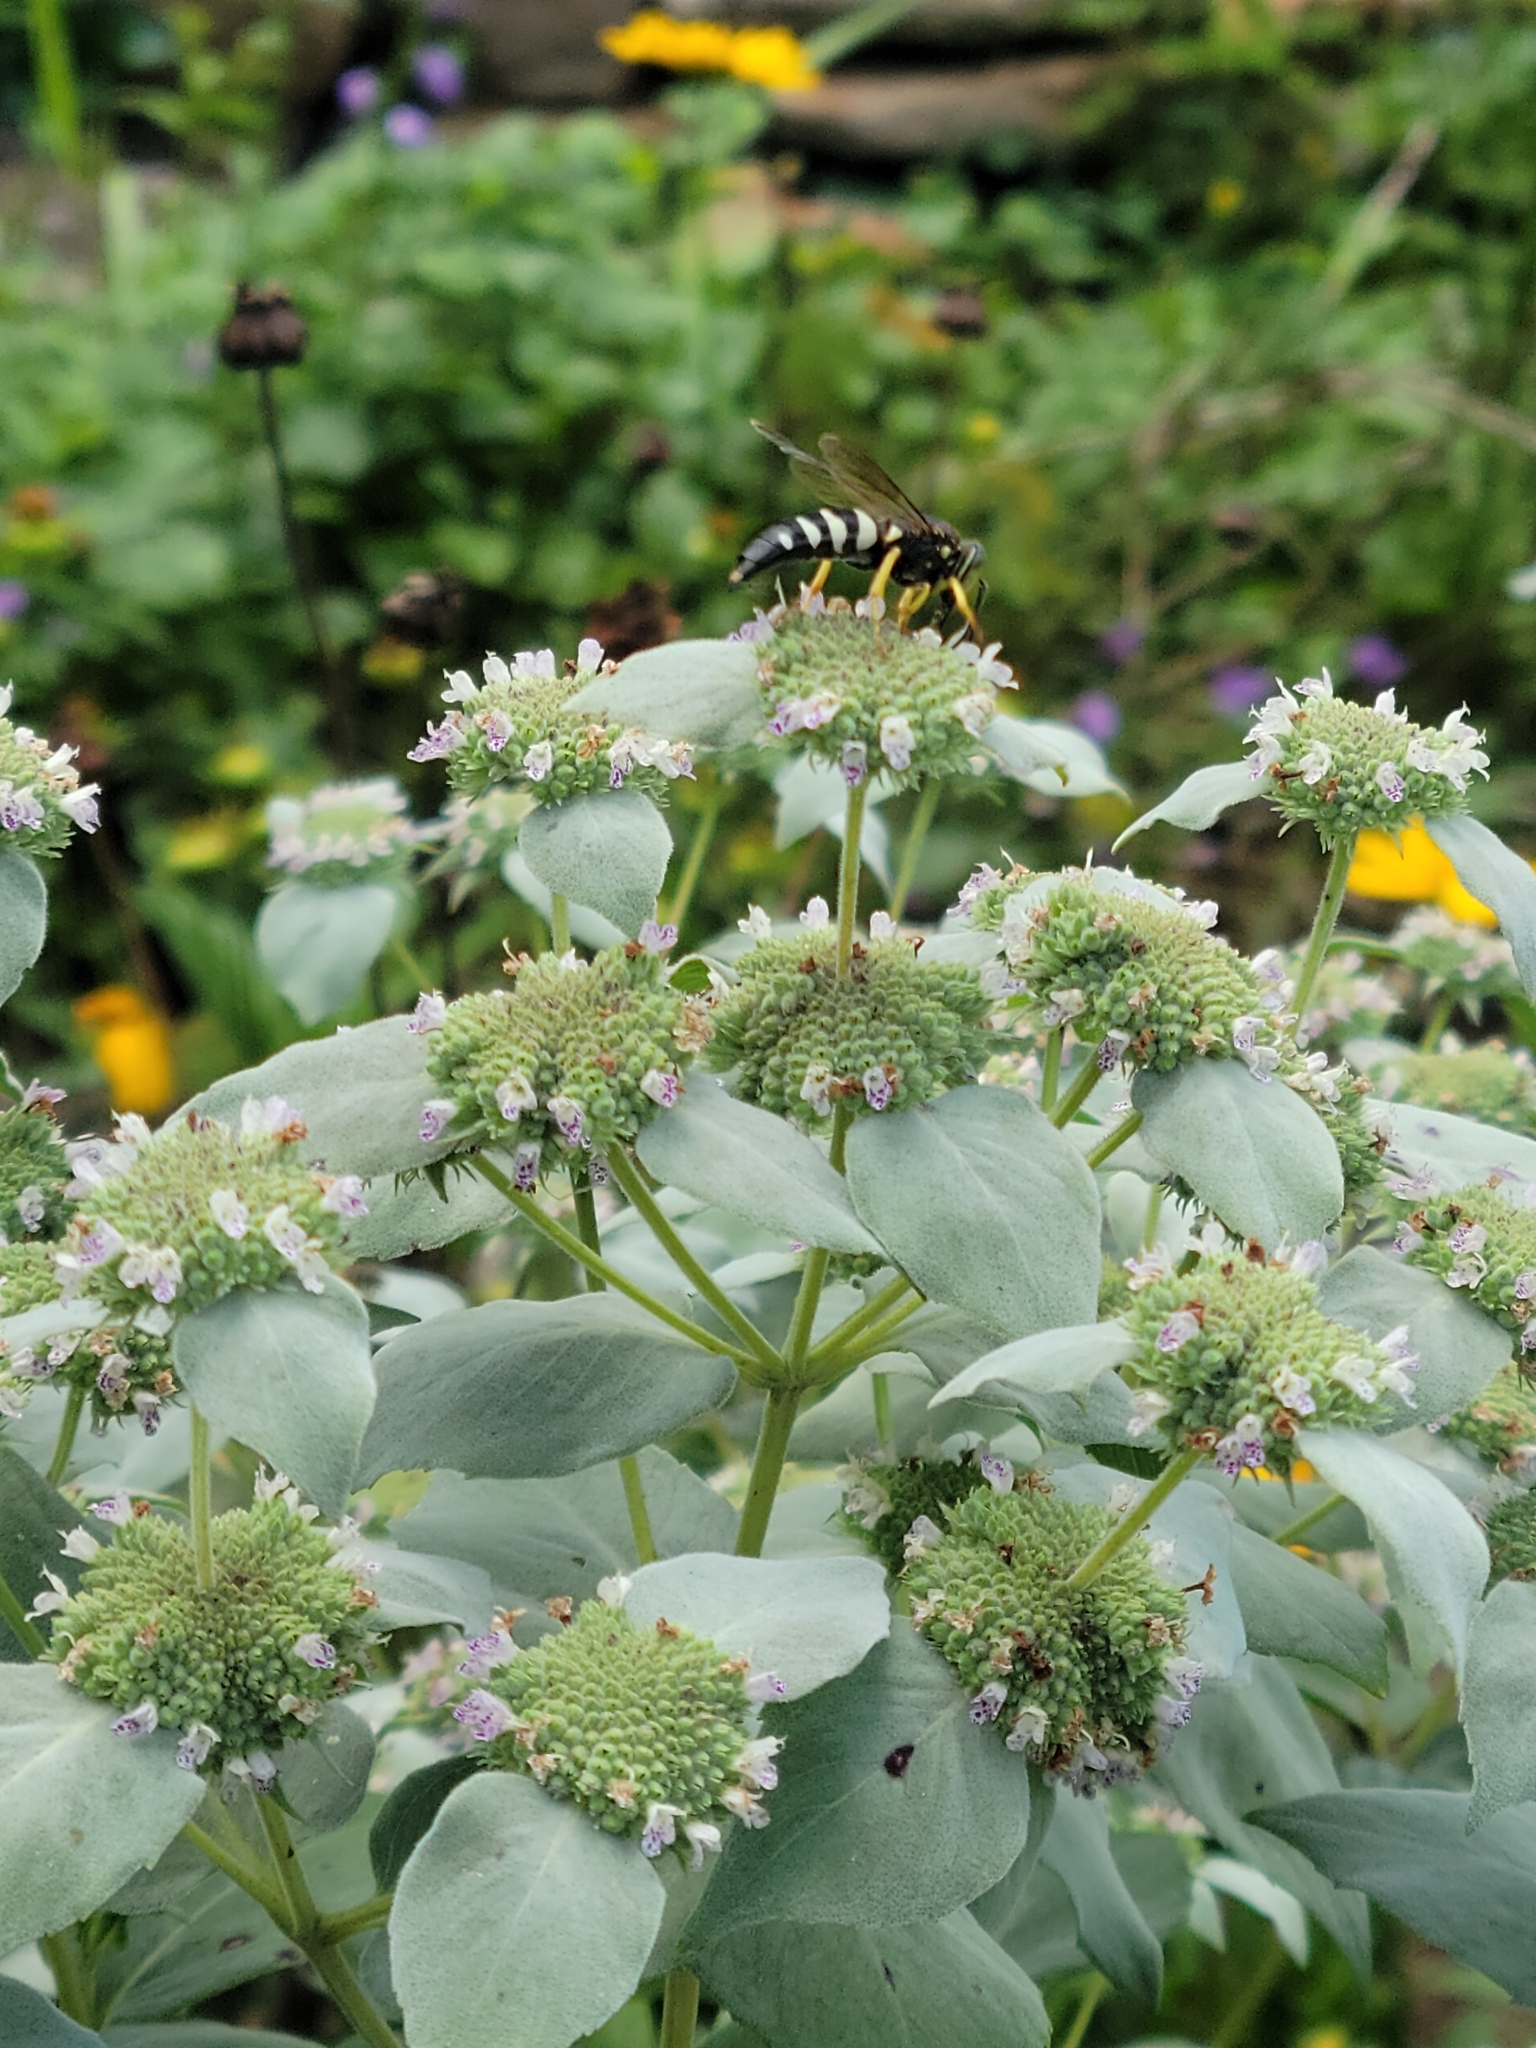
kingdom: Animalia
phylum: Arthropoda
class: Insecta
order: Hymenoptera
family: Crabronidae
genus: Bicyrtes
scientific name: Bicyrtes quadrifasciatus
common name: Four-banded stink bug hunter wasp
